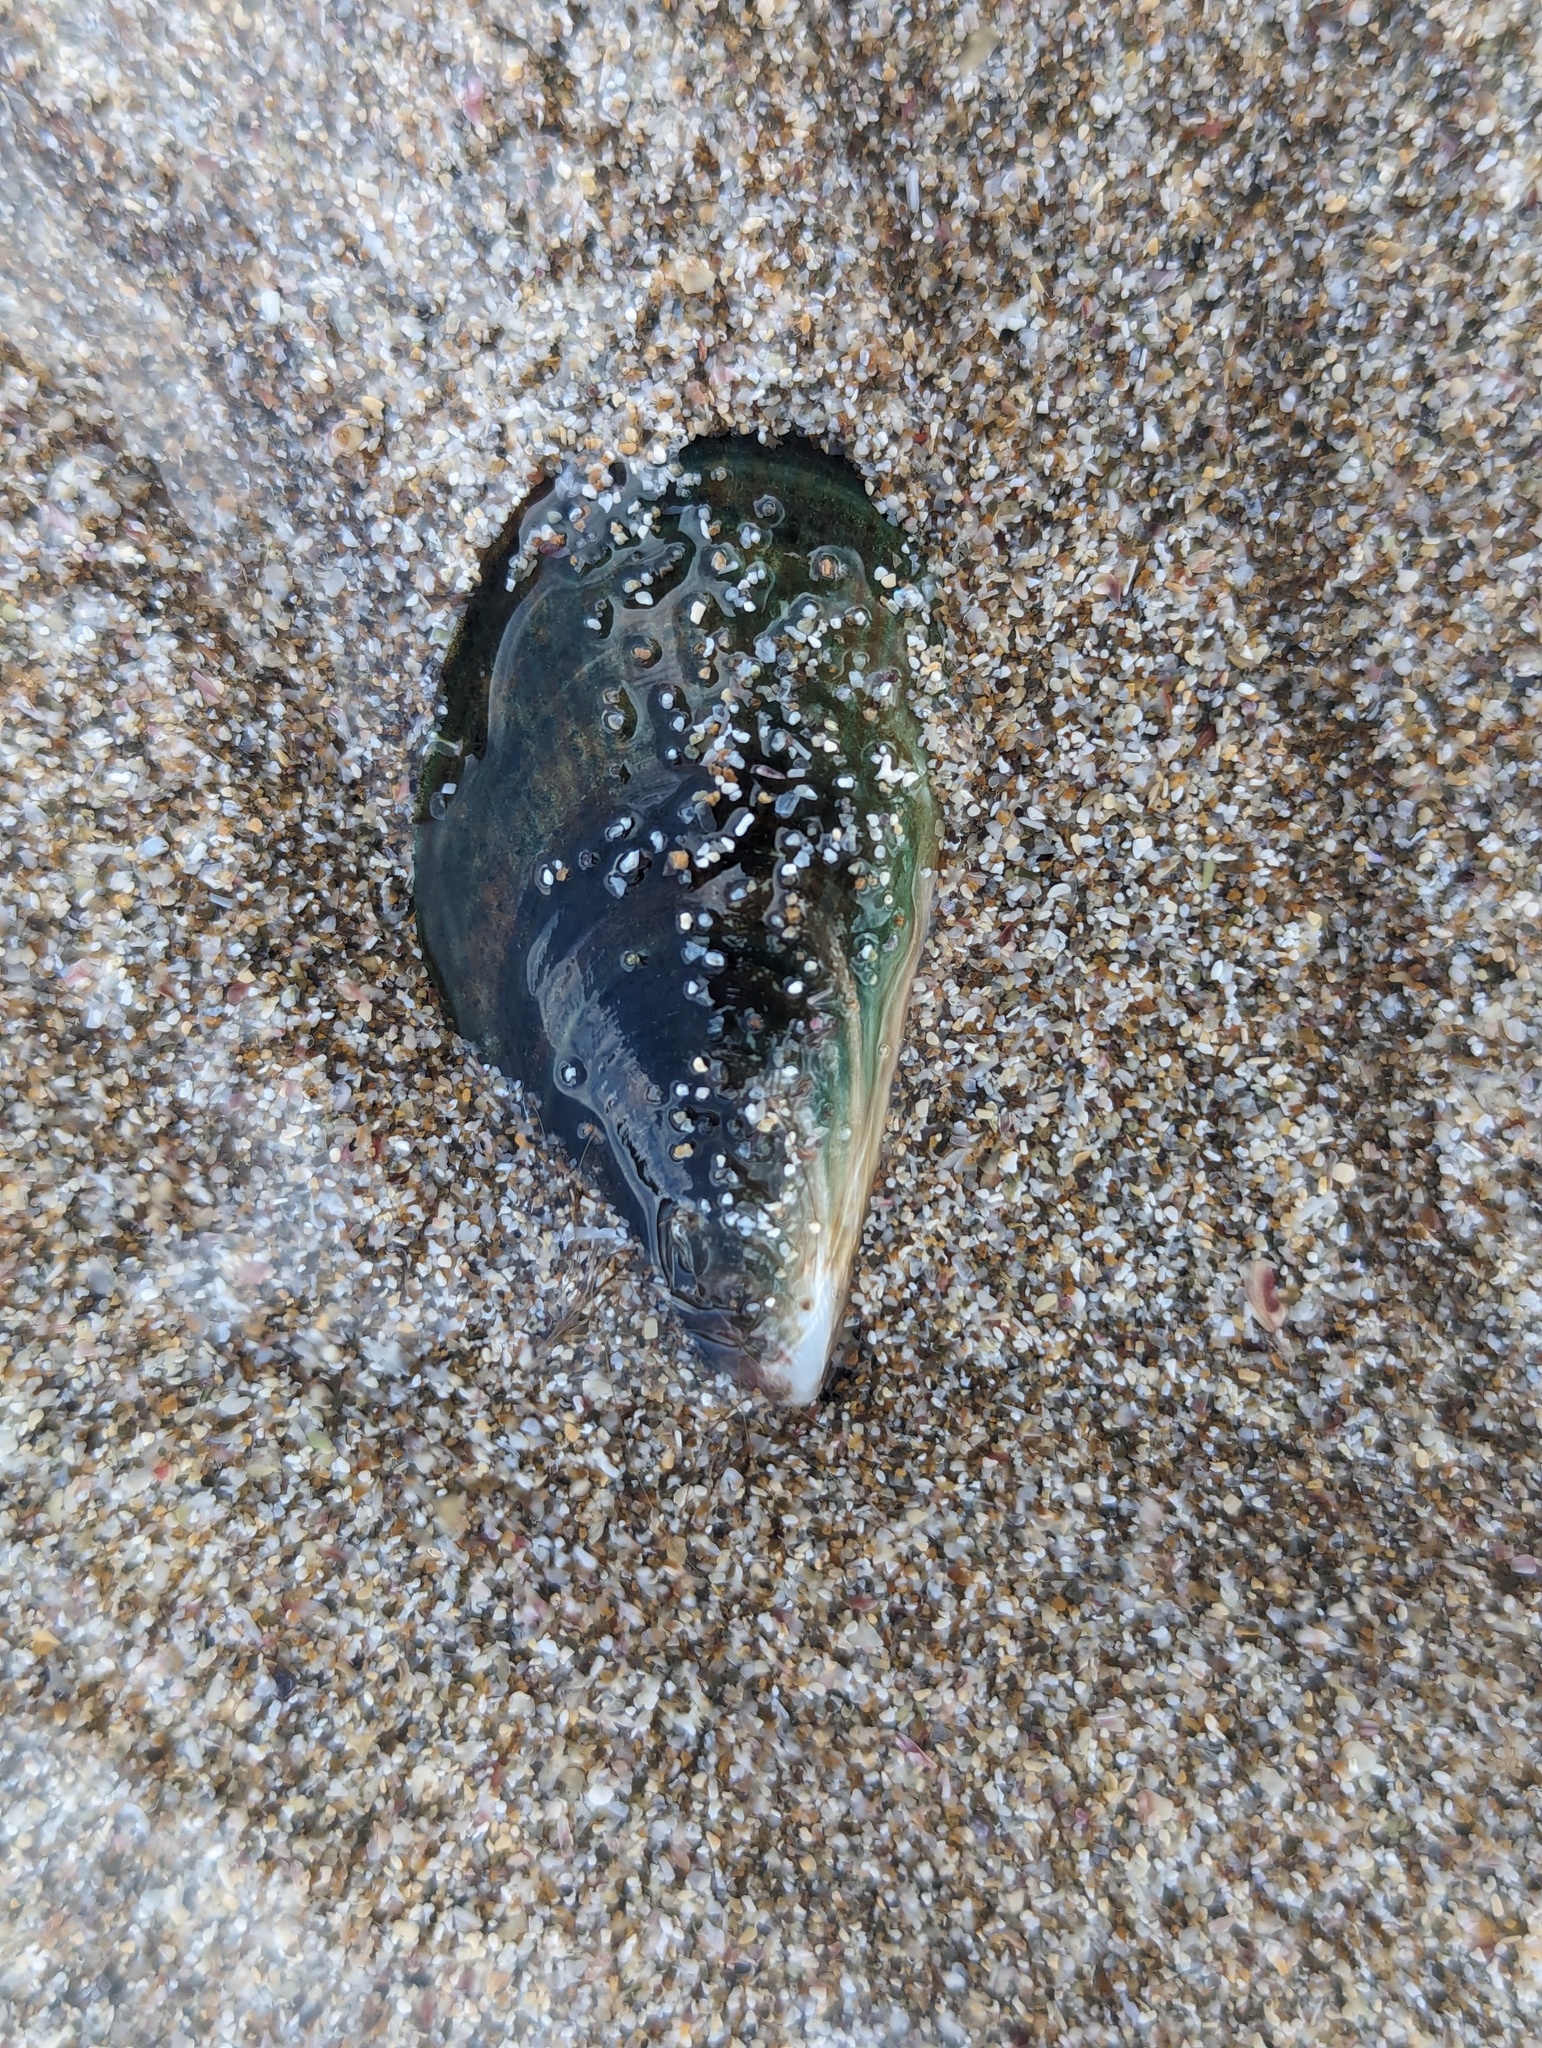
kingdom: Animalia
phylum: Mollusca
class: Bivalvia
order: Mytilida
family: Mytilidae
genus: Perna
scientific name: Perna canaliculus
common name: New zealand greenshelltm
